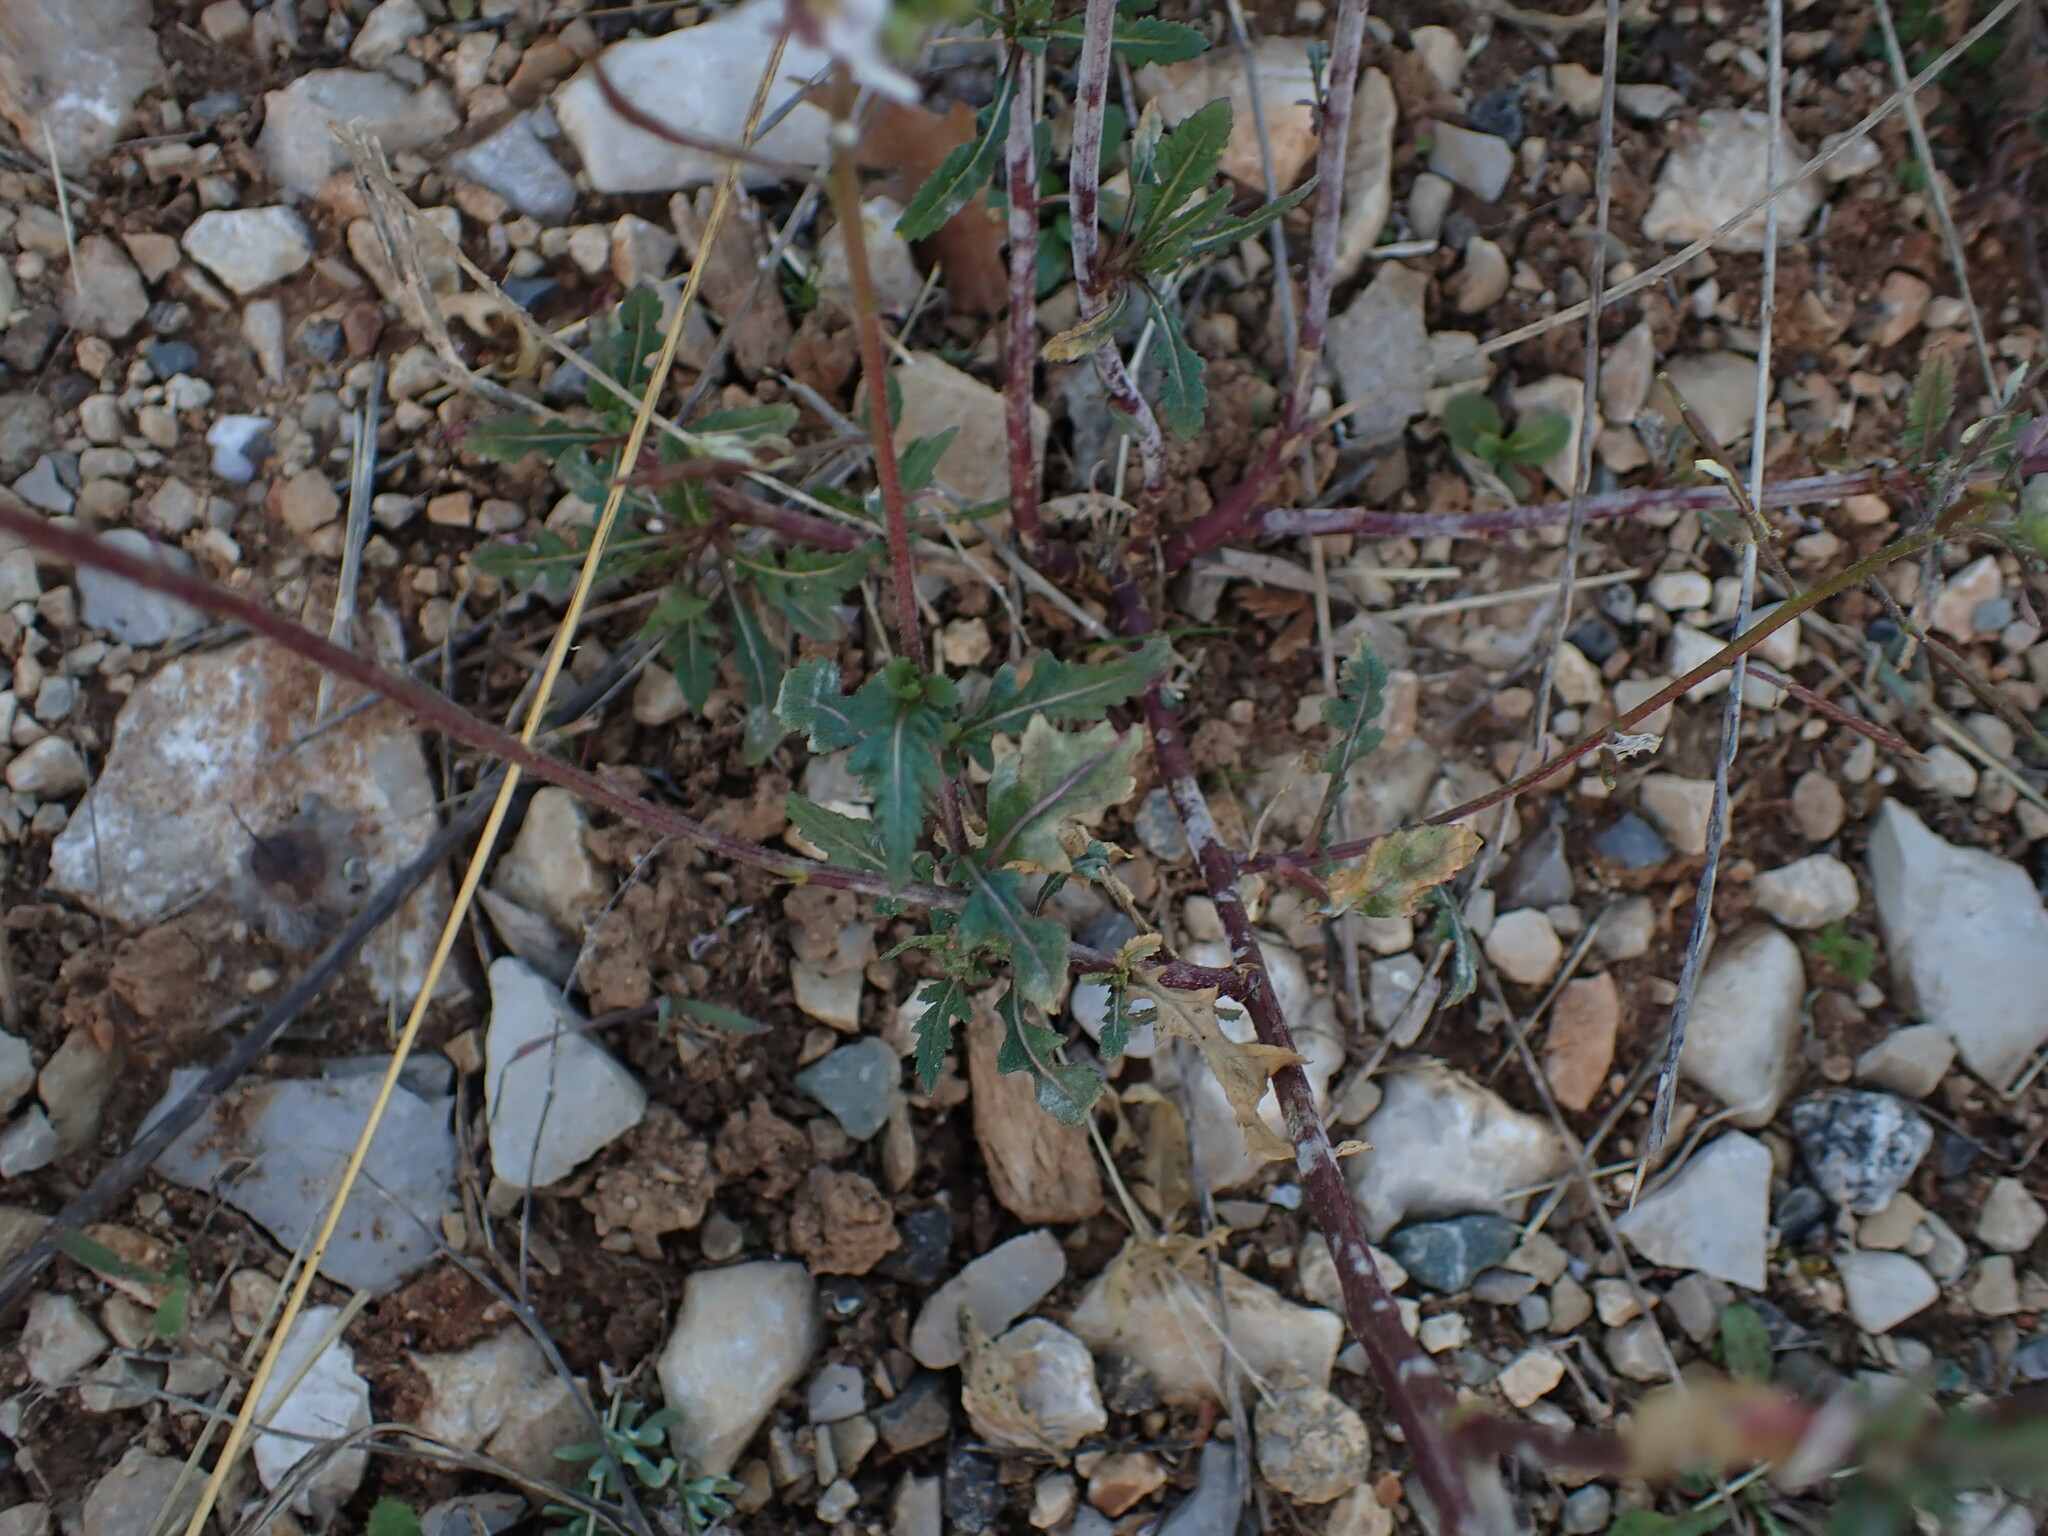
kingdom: Plantae
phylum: Tracheophyta
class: Magnoliopsida
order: Brassicales
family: Brassicaceae
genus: Diplotaxis
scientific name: Diplotaxis erucoides
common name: White rocket
